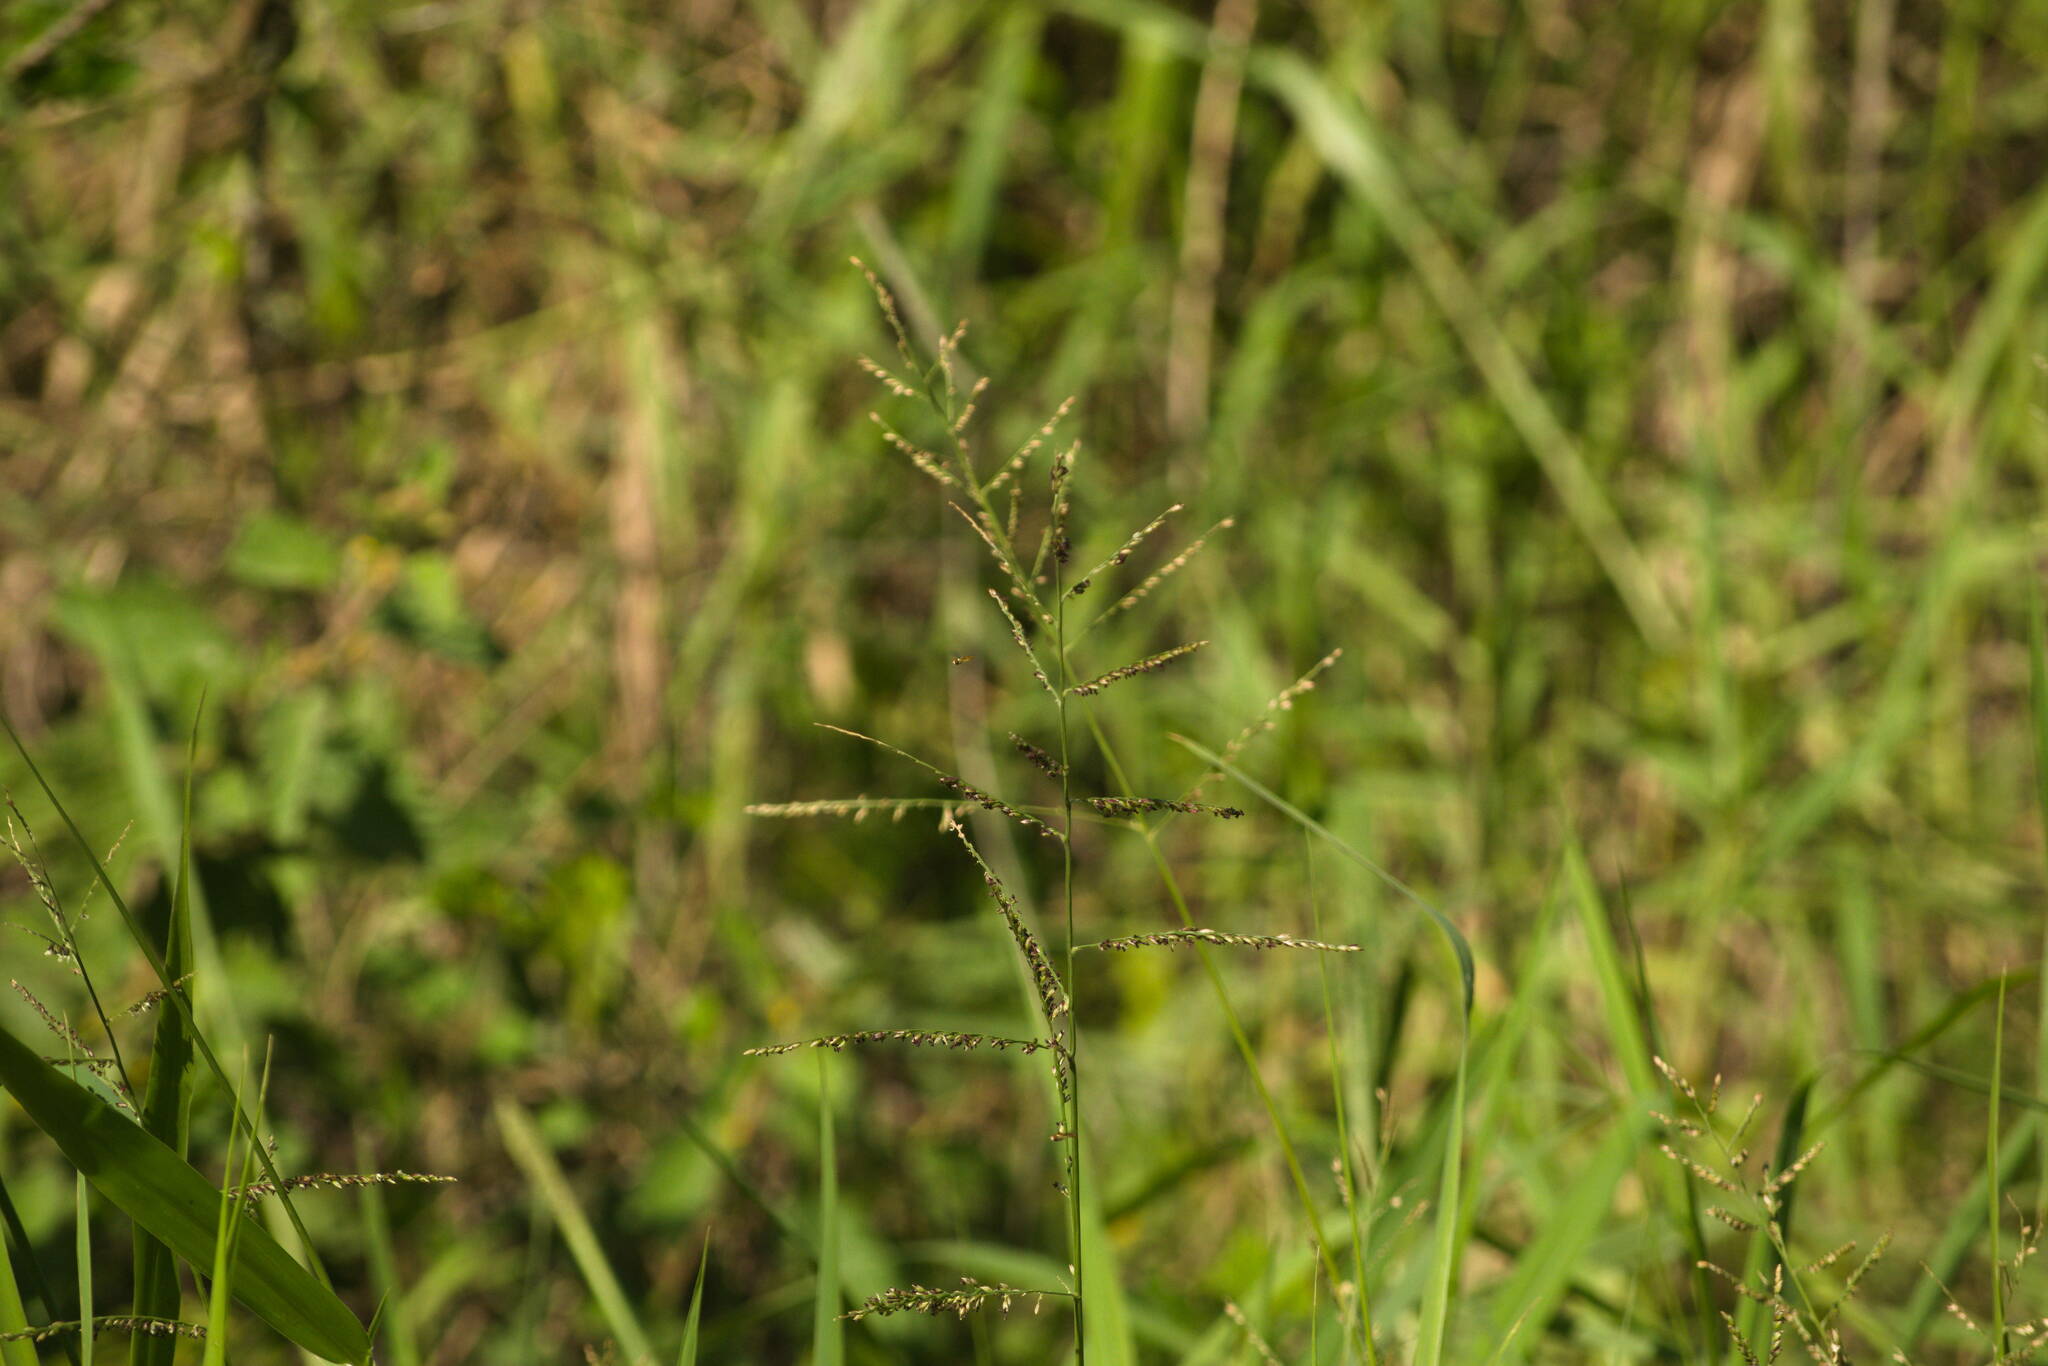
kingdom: Plantae
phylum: Tracheophyta
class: Liliopsida
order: Poales
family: Poaceae
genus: Urochloa
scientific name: Urochloa mutica
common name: Para grass
